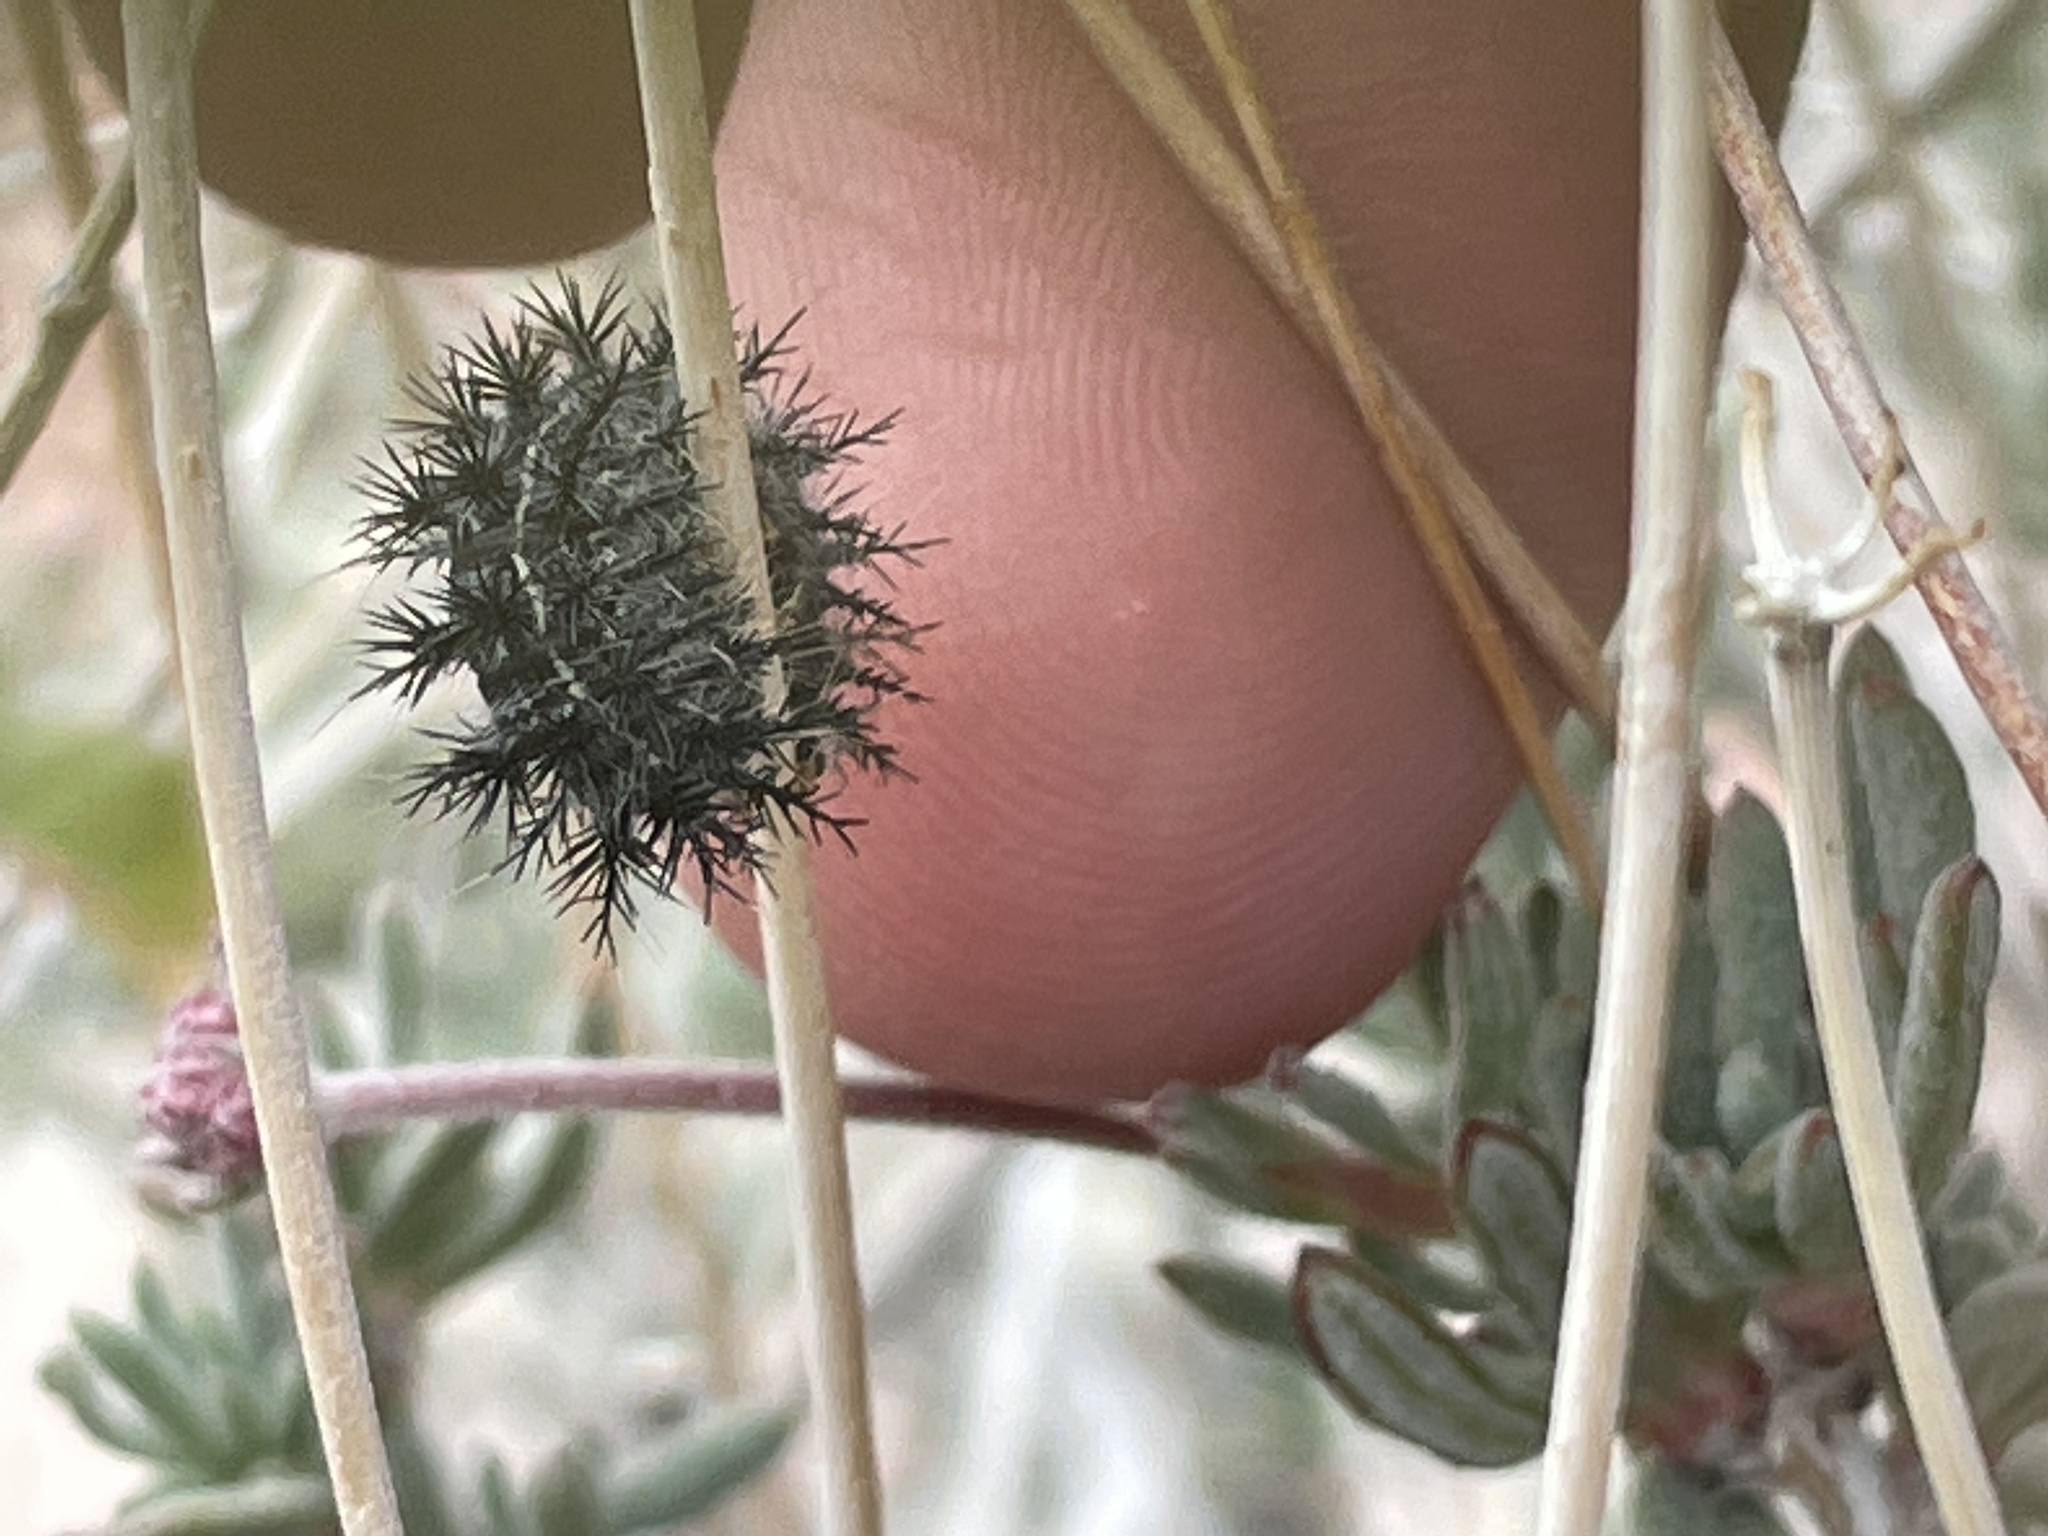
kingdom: Animalia
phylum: Arthropoda
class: Insecta
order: Lepidoptera
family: Saturniidae
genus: Hemileuca
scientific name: Hemileuca electra
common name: Electra buckmoth
